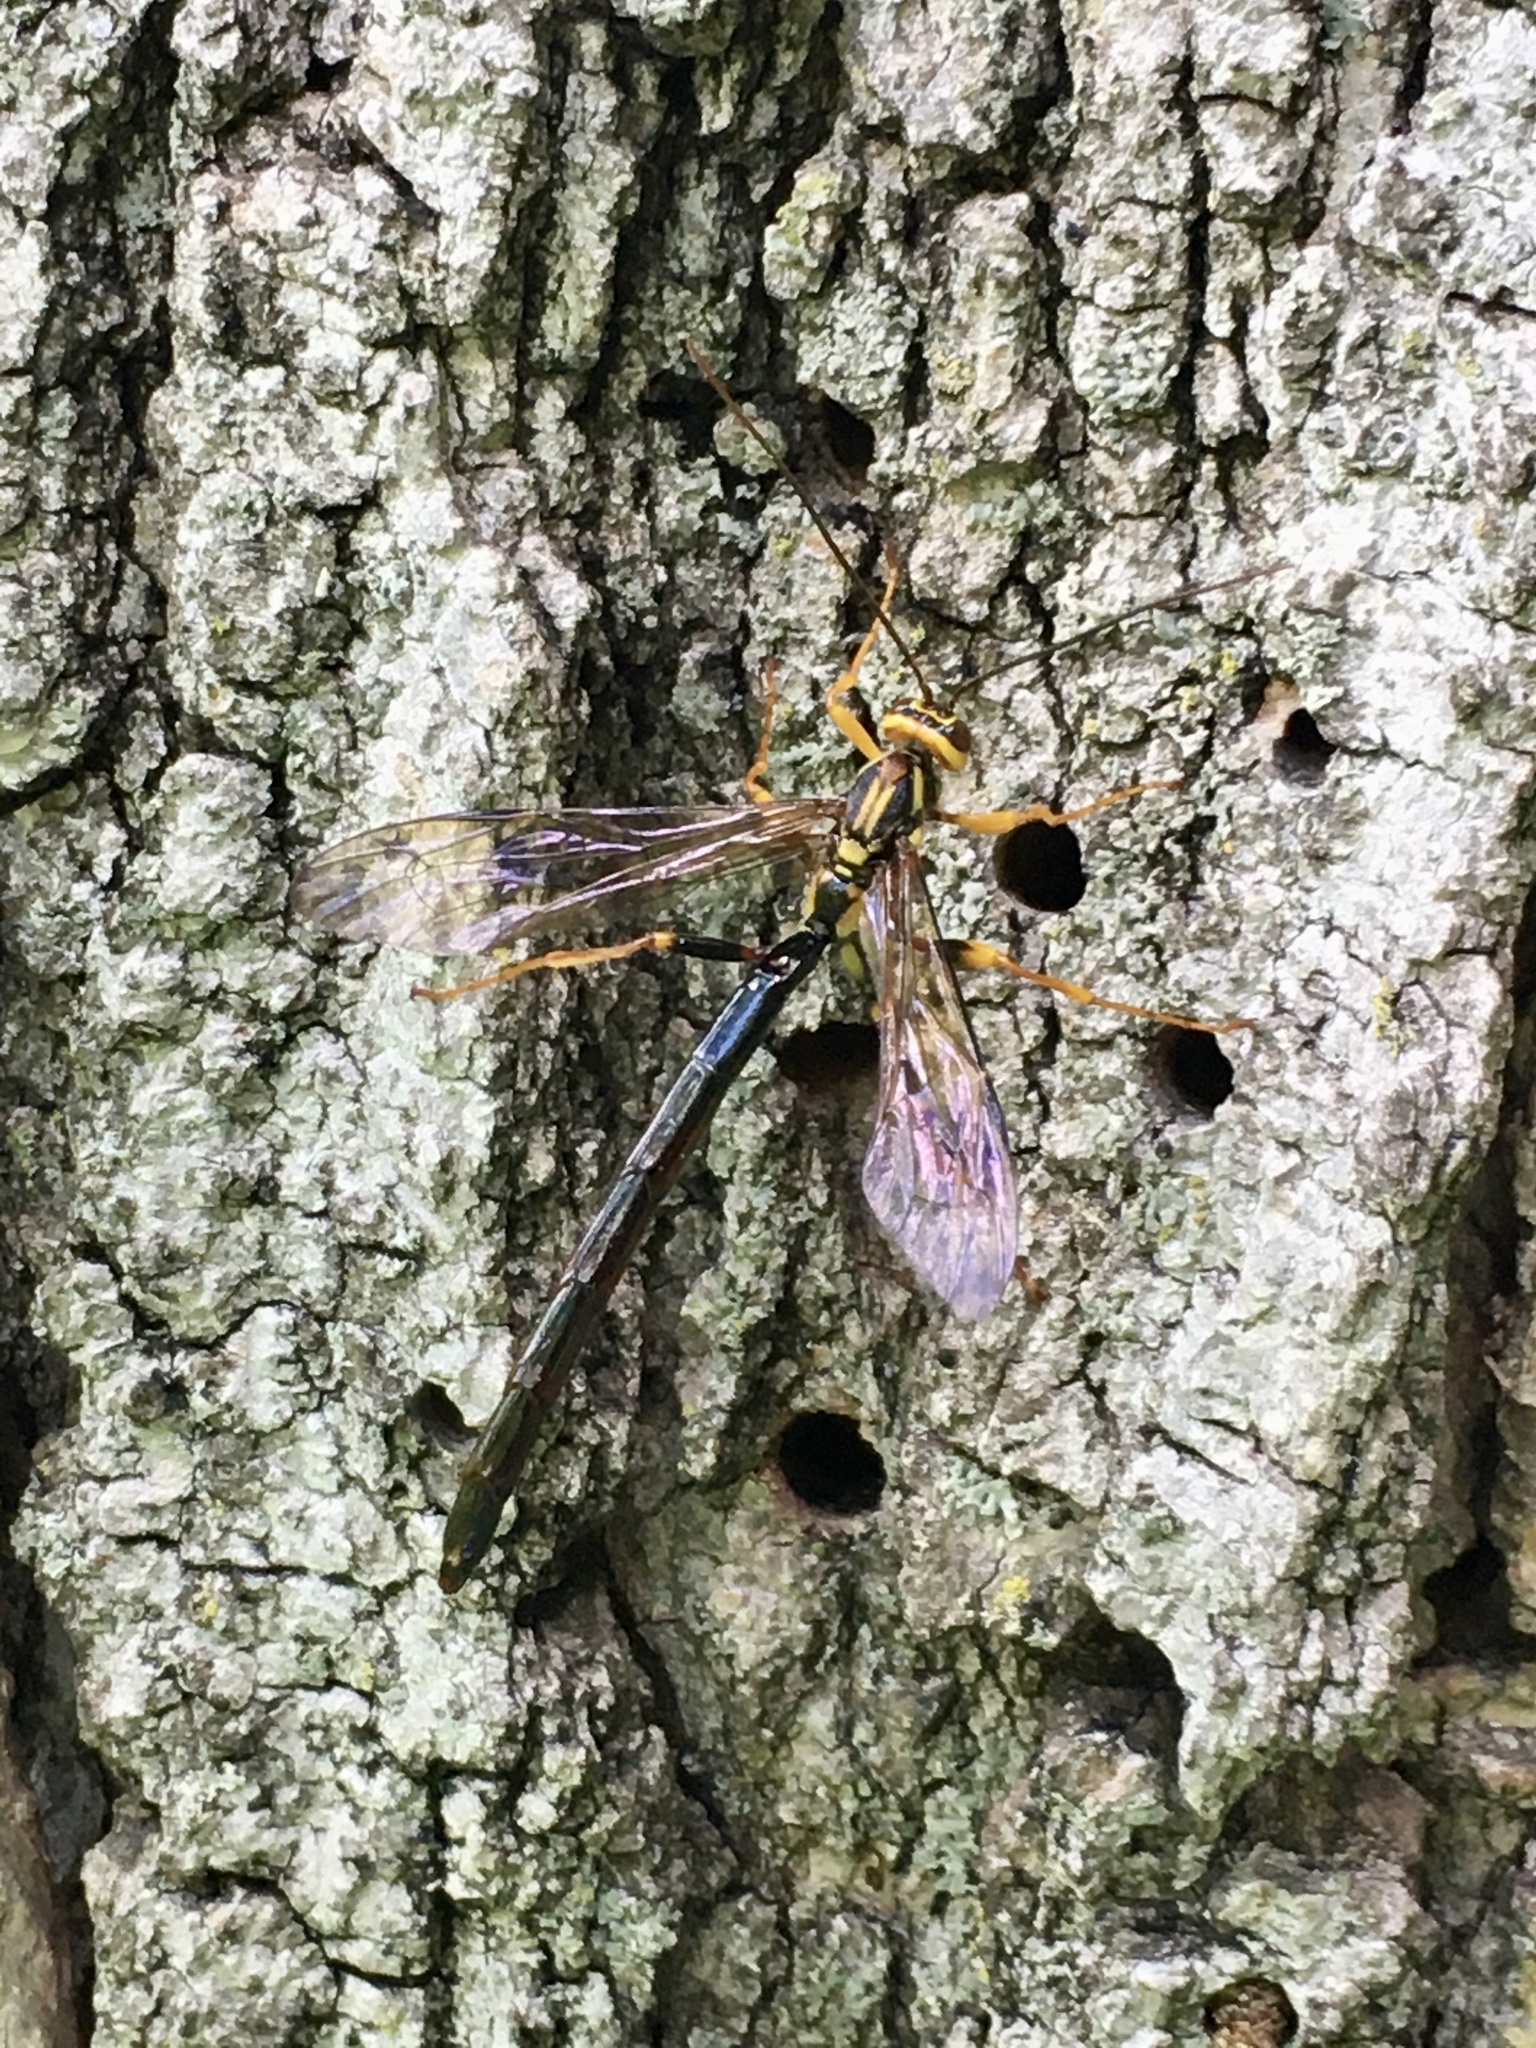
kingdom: Animalia
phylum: Arthropoda
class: Insecta
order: Hymenoptera
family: Ichneumonidae
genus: Megarhyssa
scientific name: Megarhyssa atrata
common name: Black giant ichneumonid wasp
